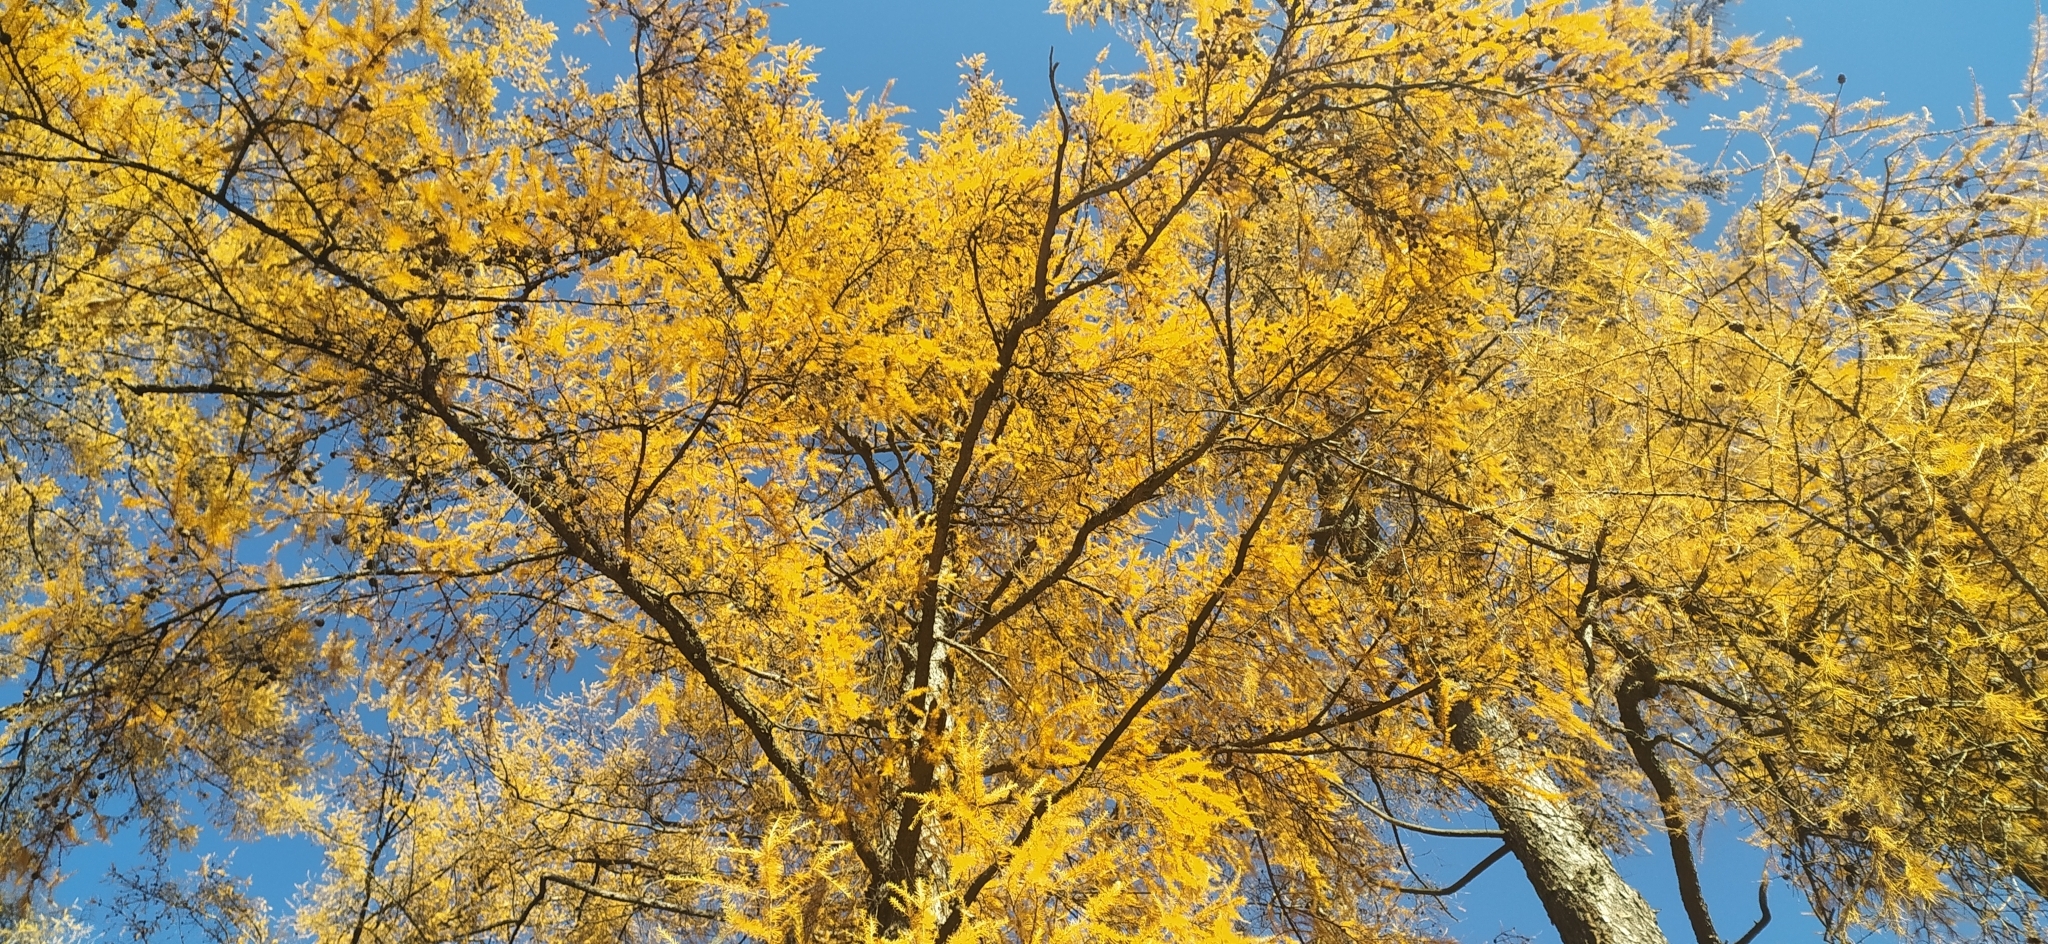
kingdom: Plantae
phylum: Tracheophyta
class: Pinopsida
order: Pinales
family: Pinaceae
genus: Larix
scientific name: Larix sibirica
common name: Siberian larch
